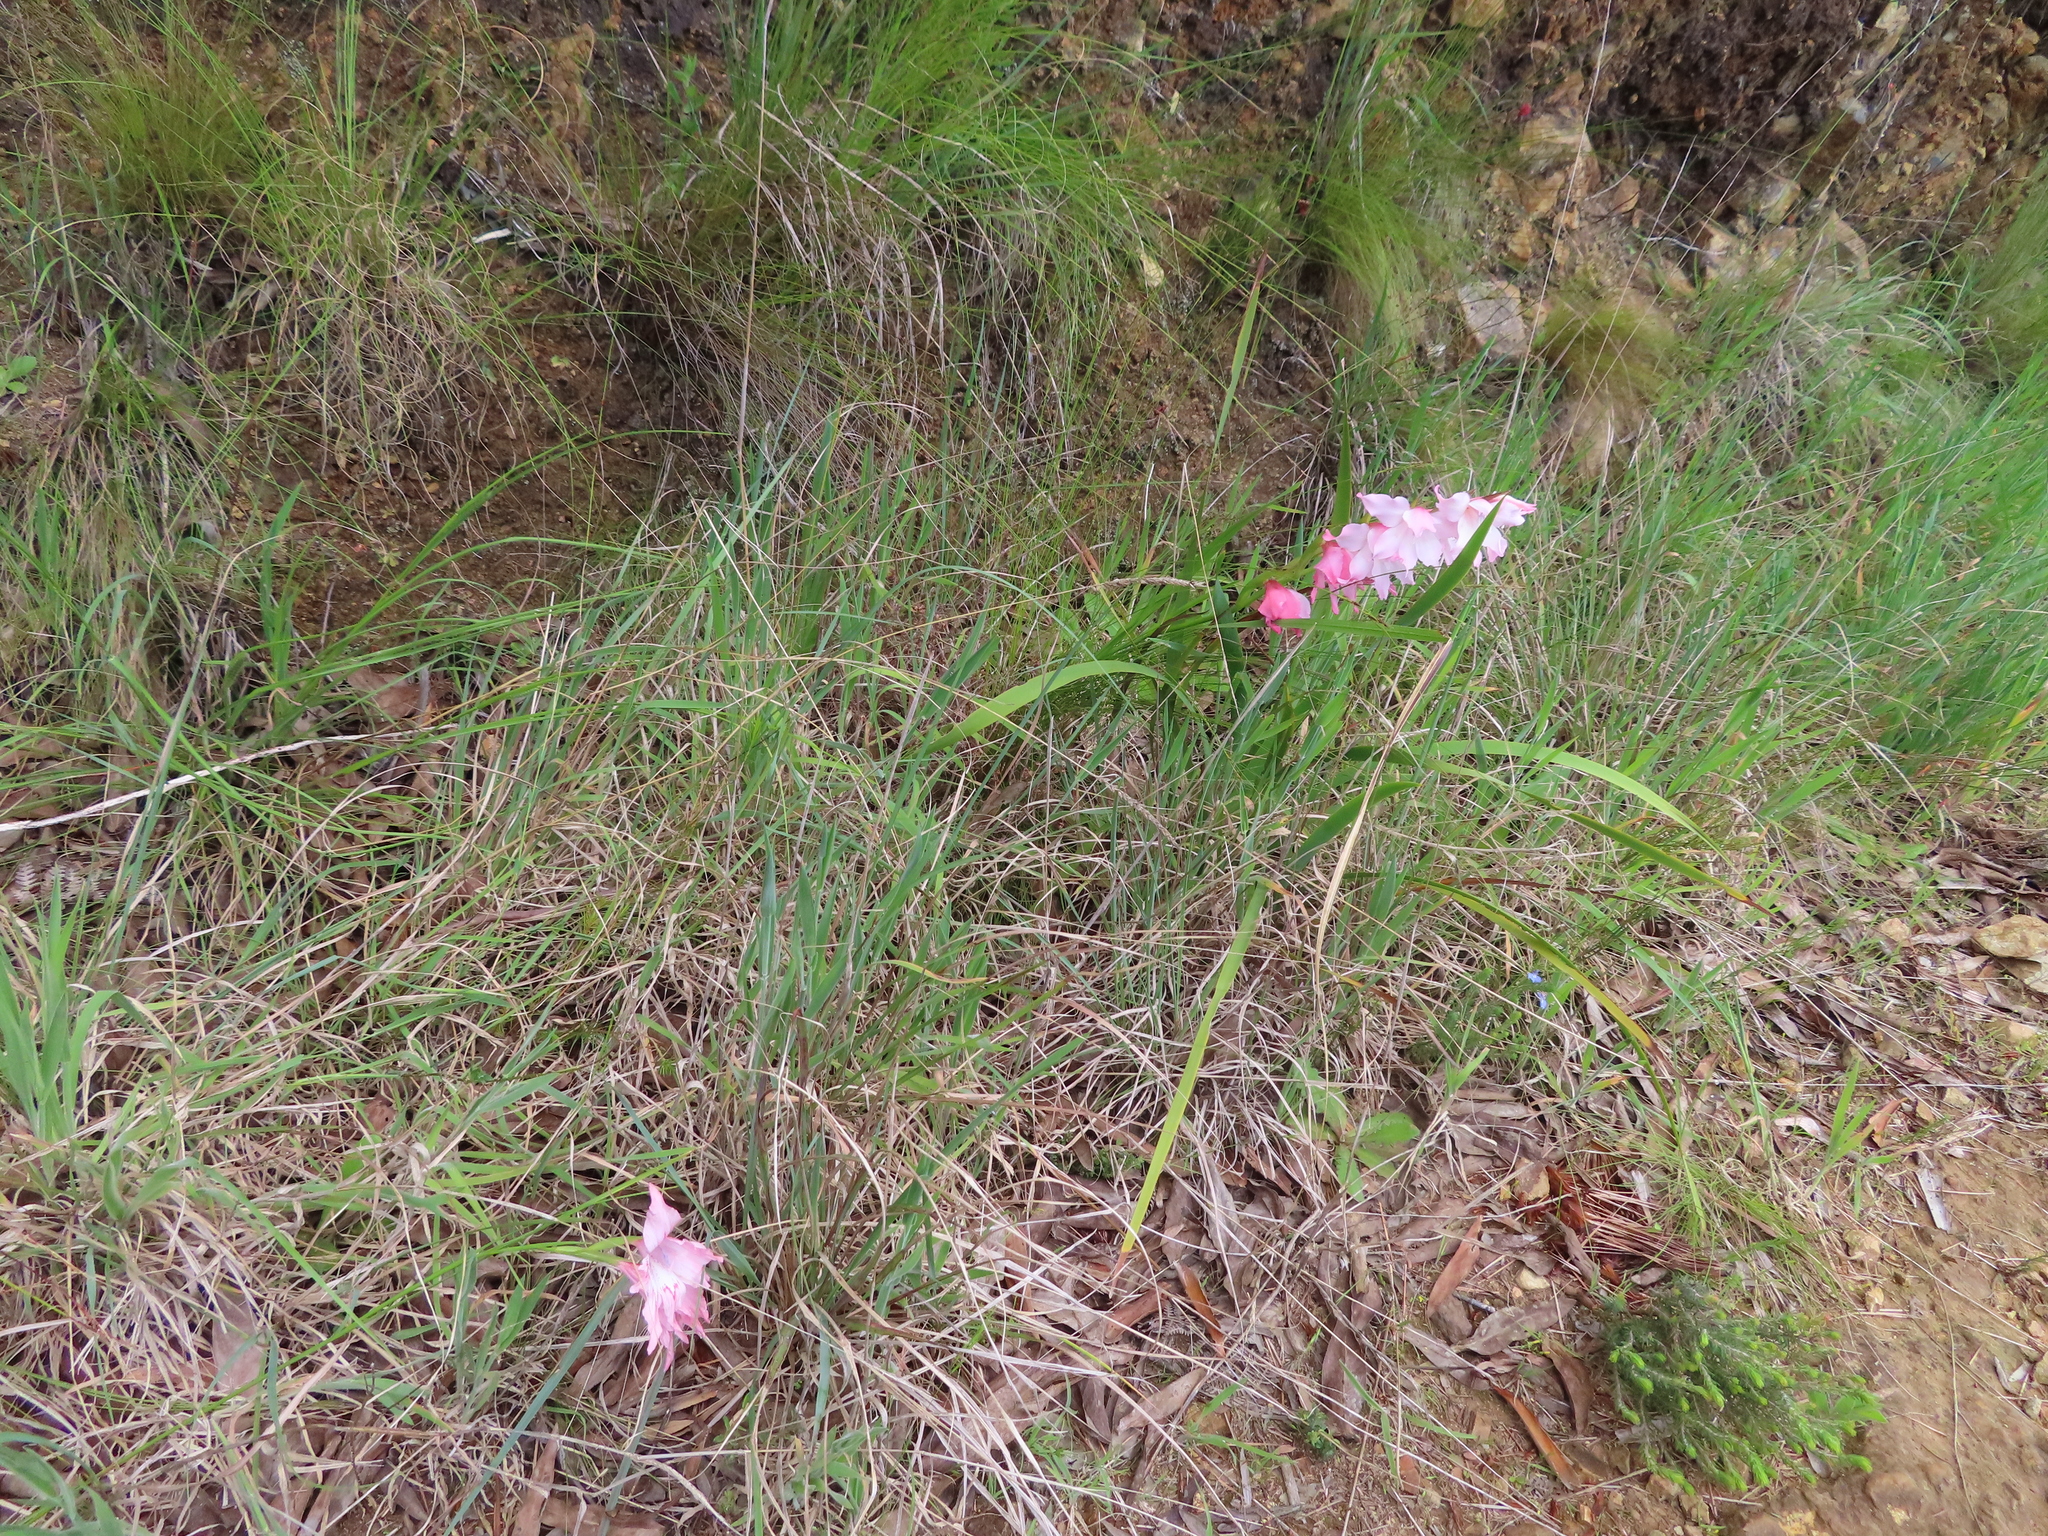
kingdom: Plantae
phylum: Tracheophyta
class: Liliopsida
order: Asparagales
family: Iridaceae
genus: Gladiolus
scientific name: Gladiolus virgatus
